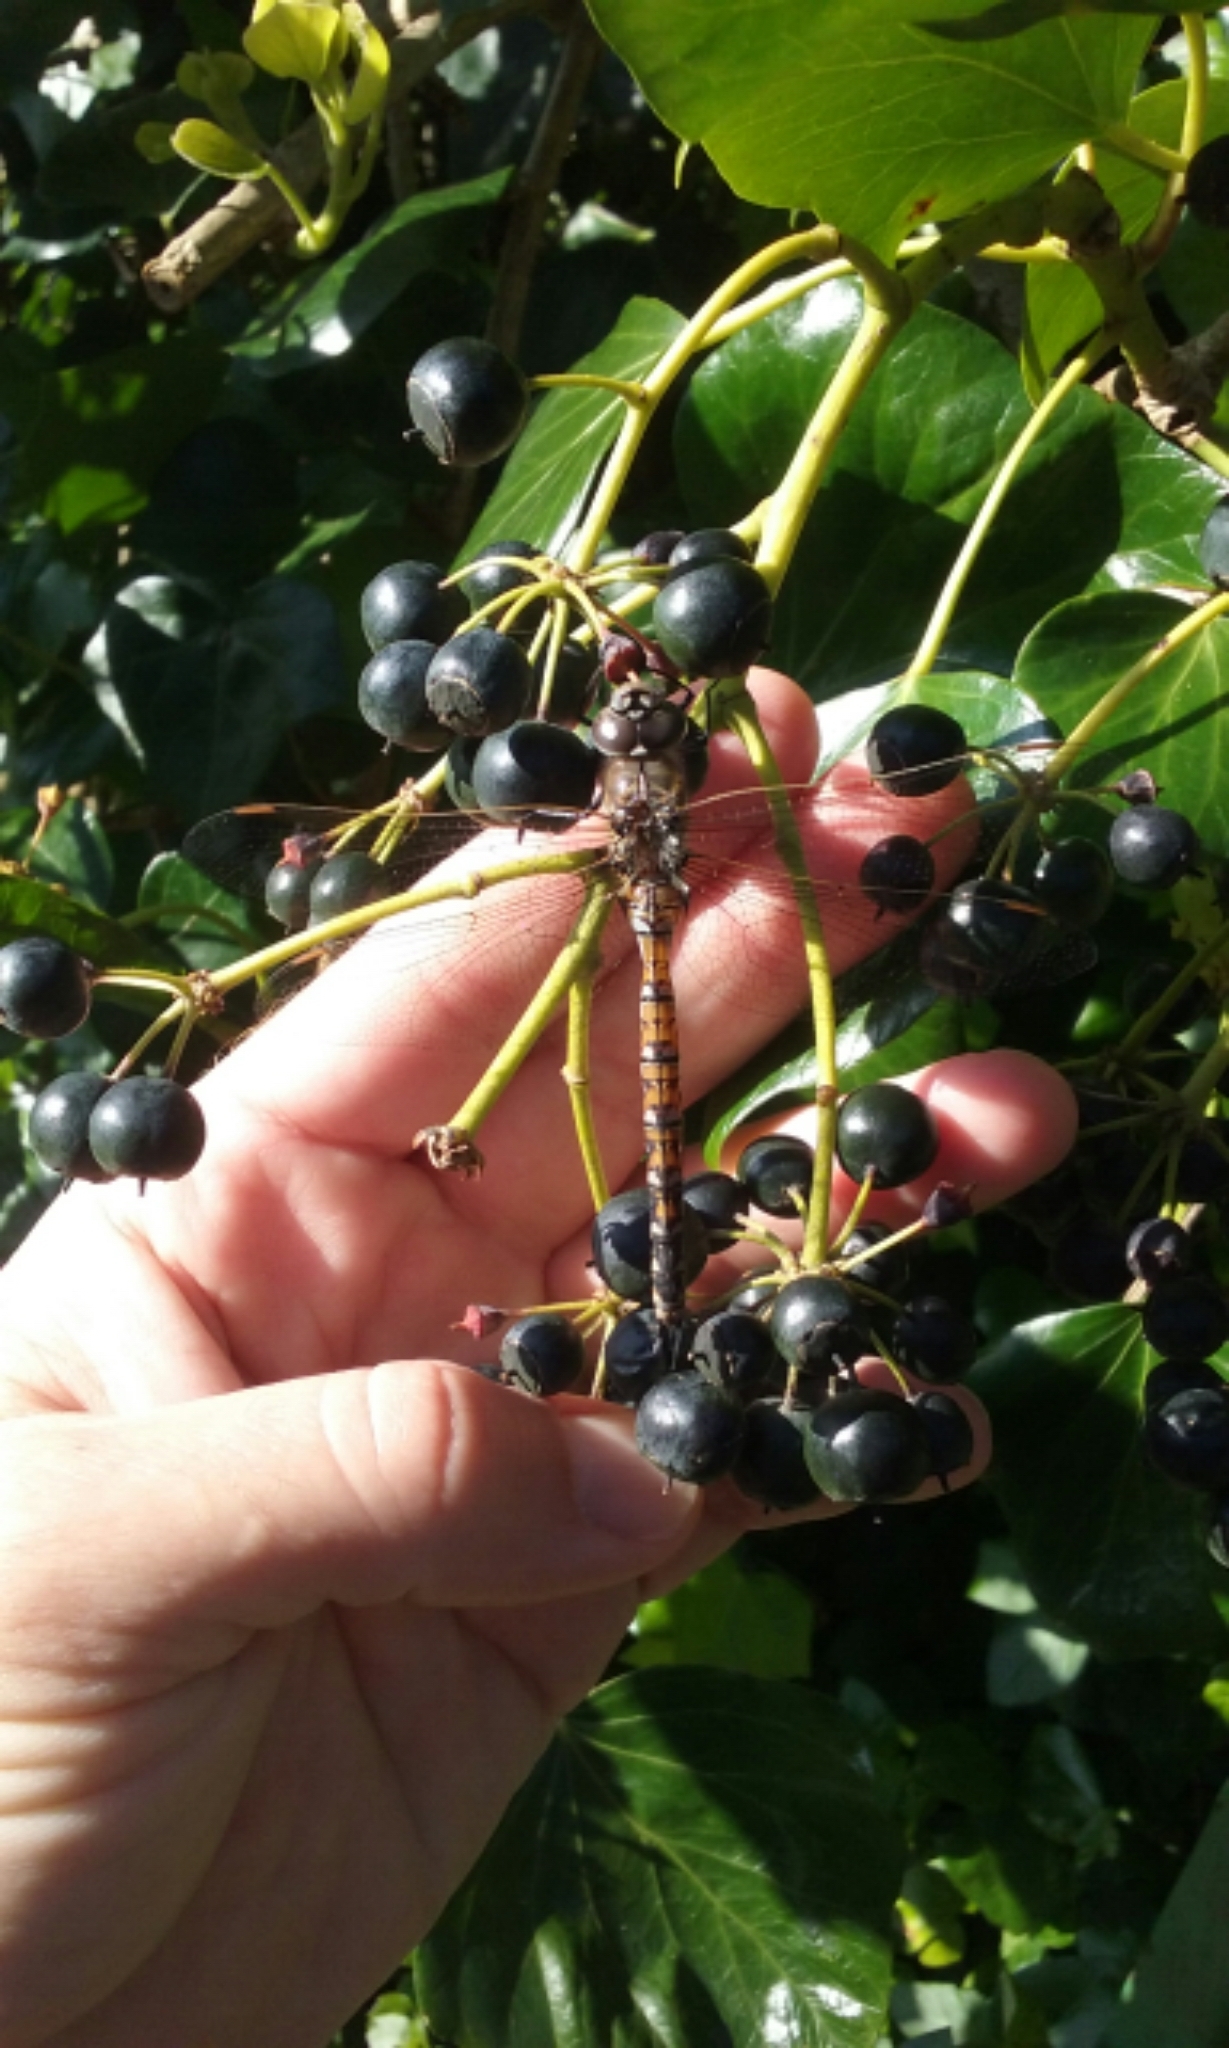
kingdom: Animalia
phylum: Arthropoda
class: Insecta
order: Odonata
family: Aeshnidae
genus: Rhionaeschna
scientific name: Rhionaeschna californica
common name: California darner
